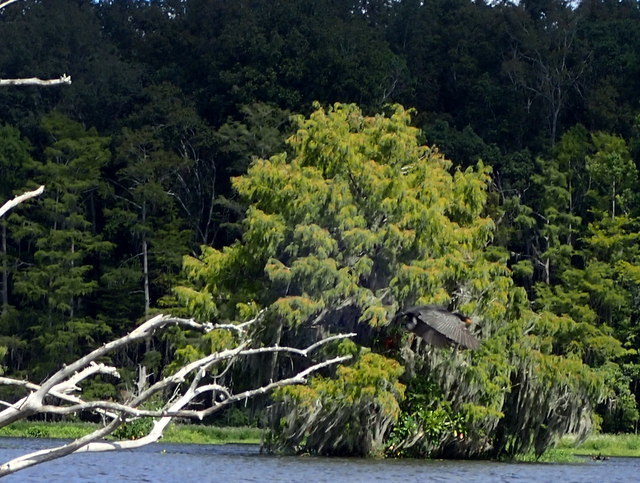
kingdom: Animalia
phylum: Chordata
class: Aves
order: Suliformes
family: Phalacrocoracidae
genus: Phalacrocorax
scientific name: Phalacrocorax auritus
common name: Double-crested cormorant
